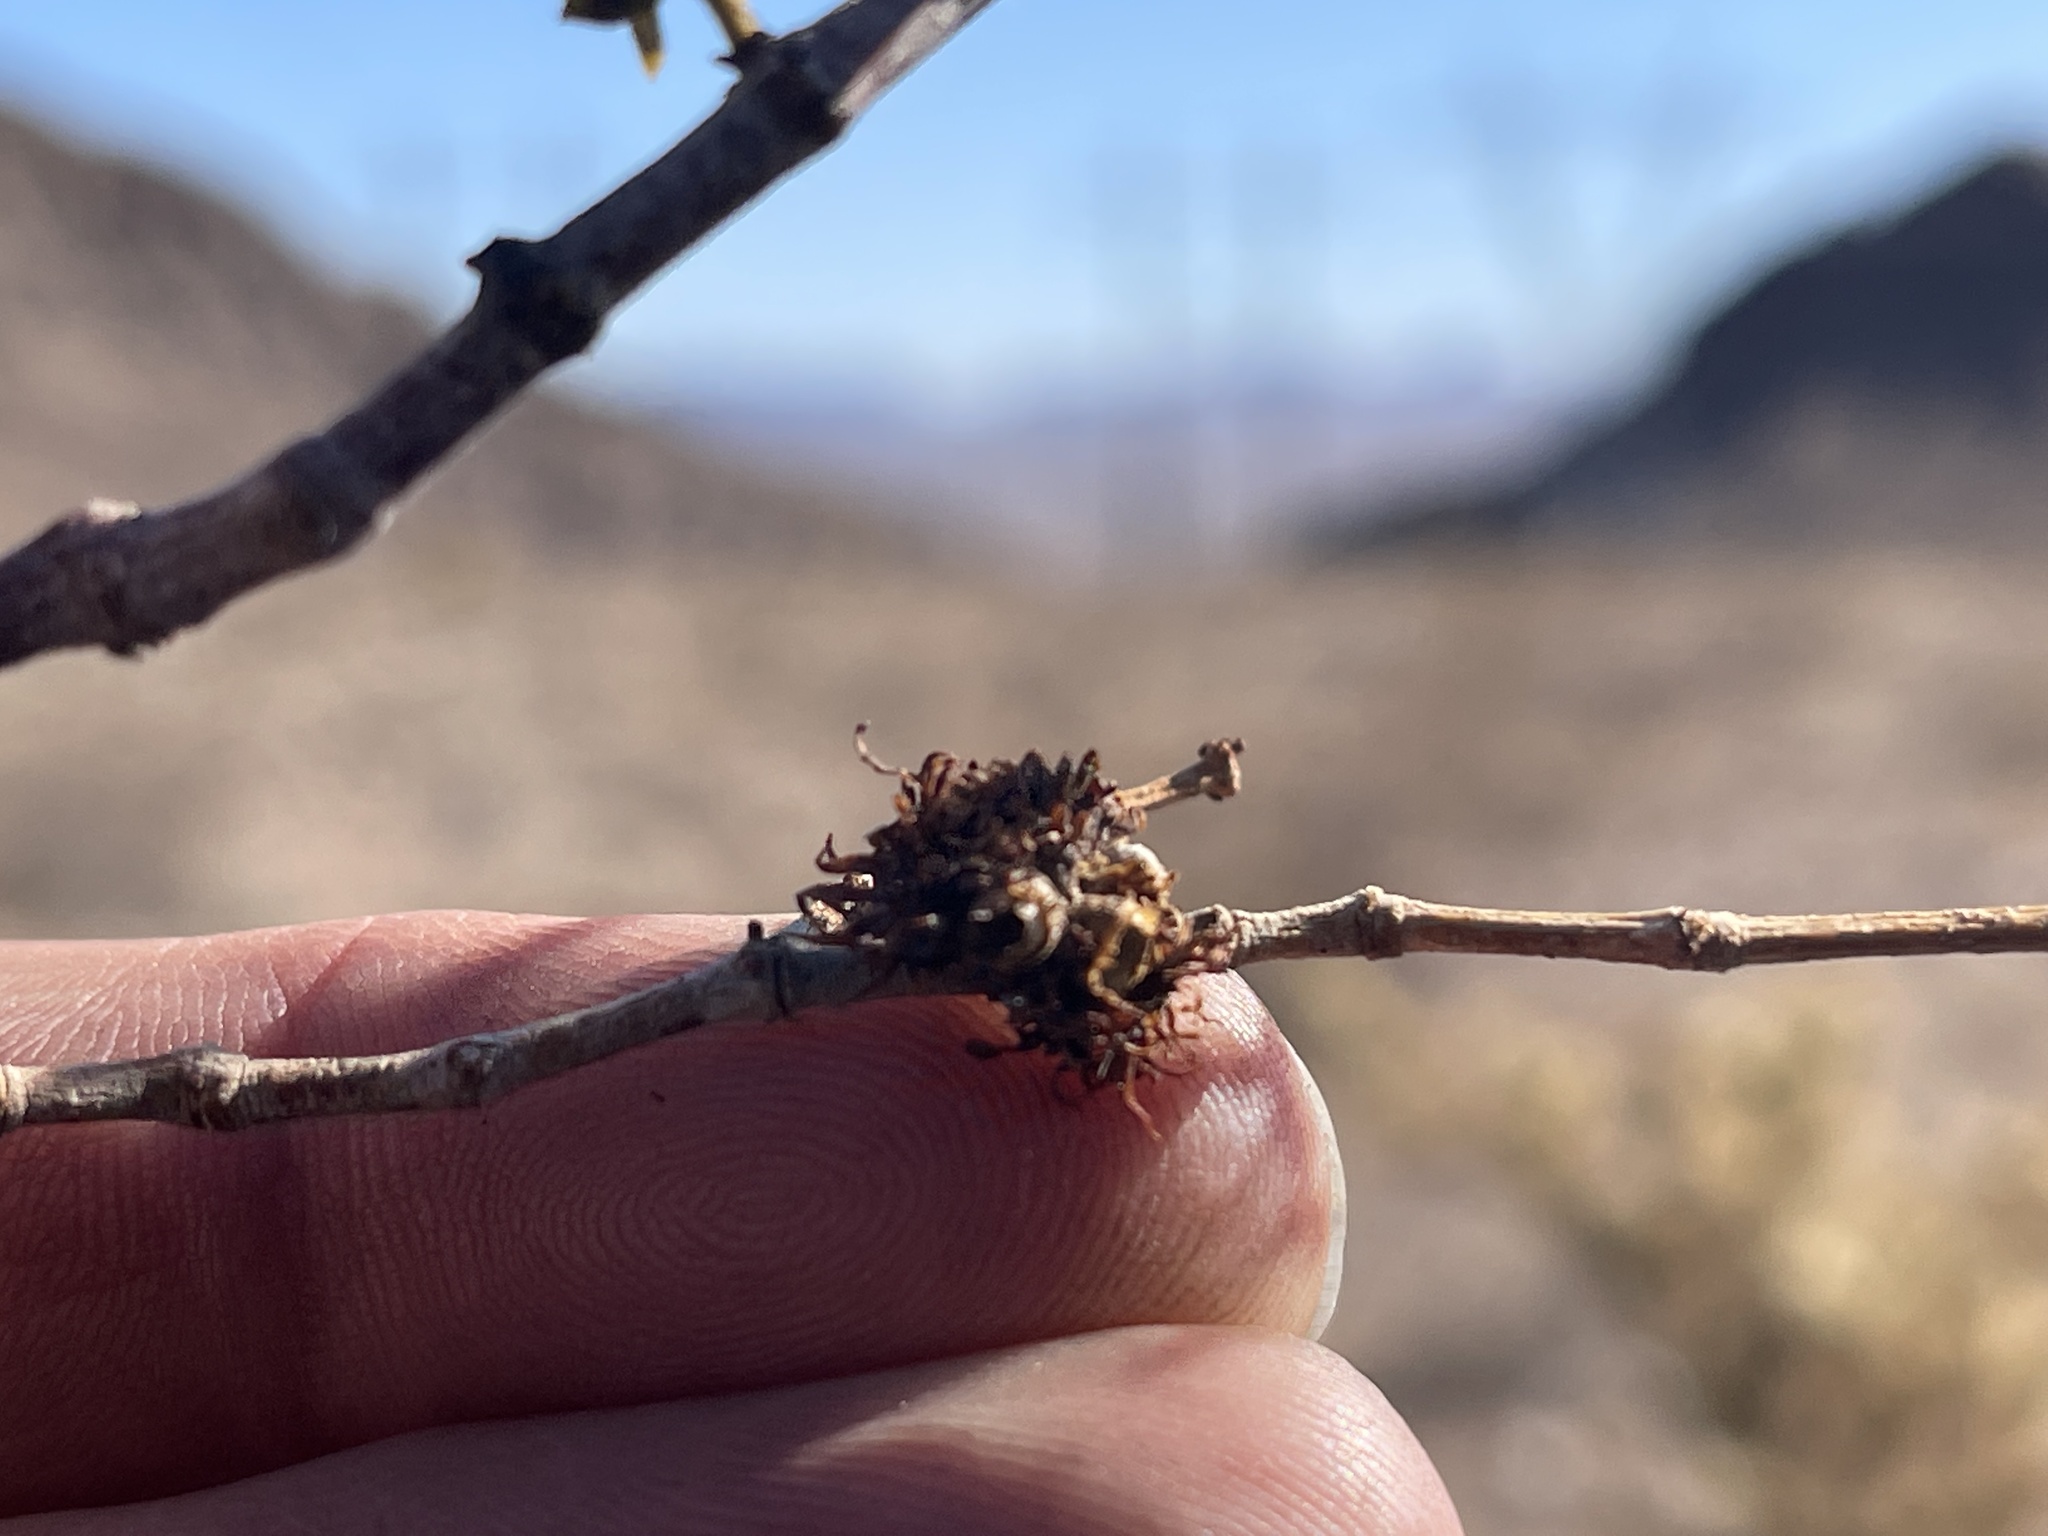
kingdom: Animalia
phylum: Arthropoda
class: Insecta
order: Diptera
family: Cecidomyiidae
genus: Asphondylia
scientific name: Asphondylia auripila
